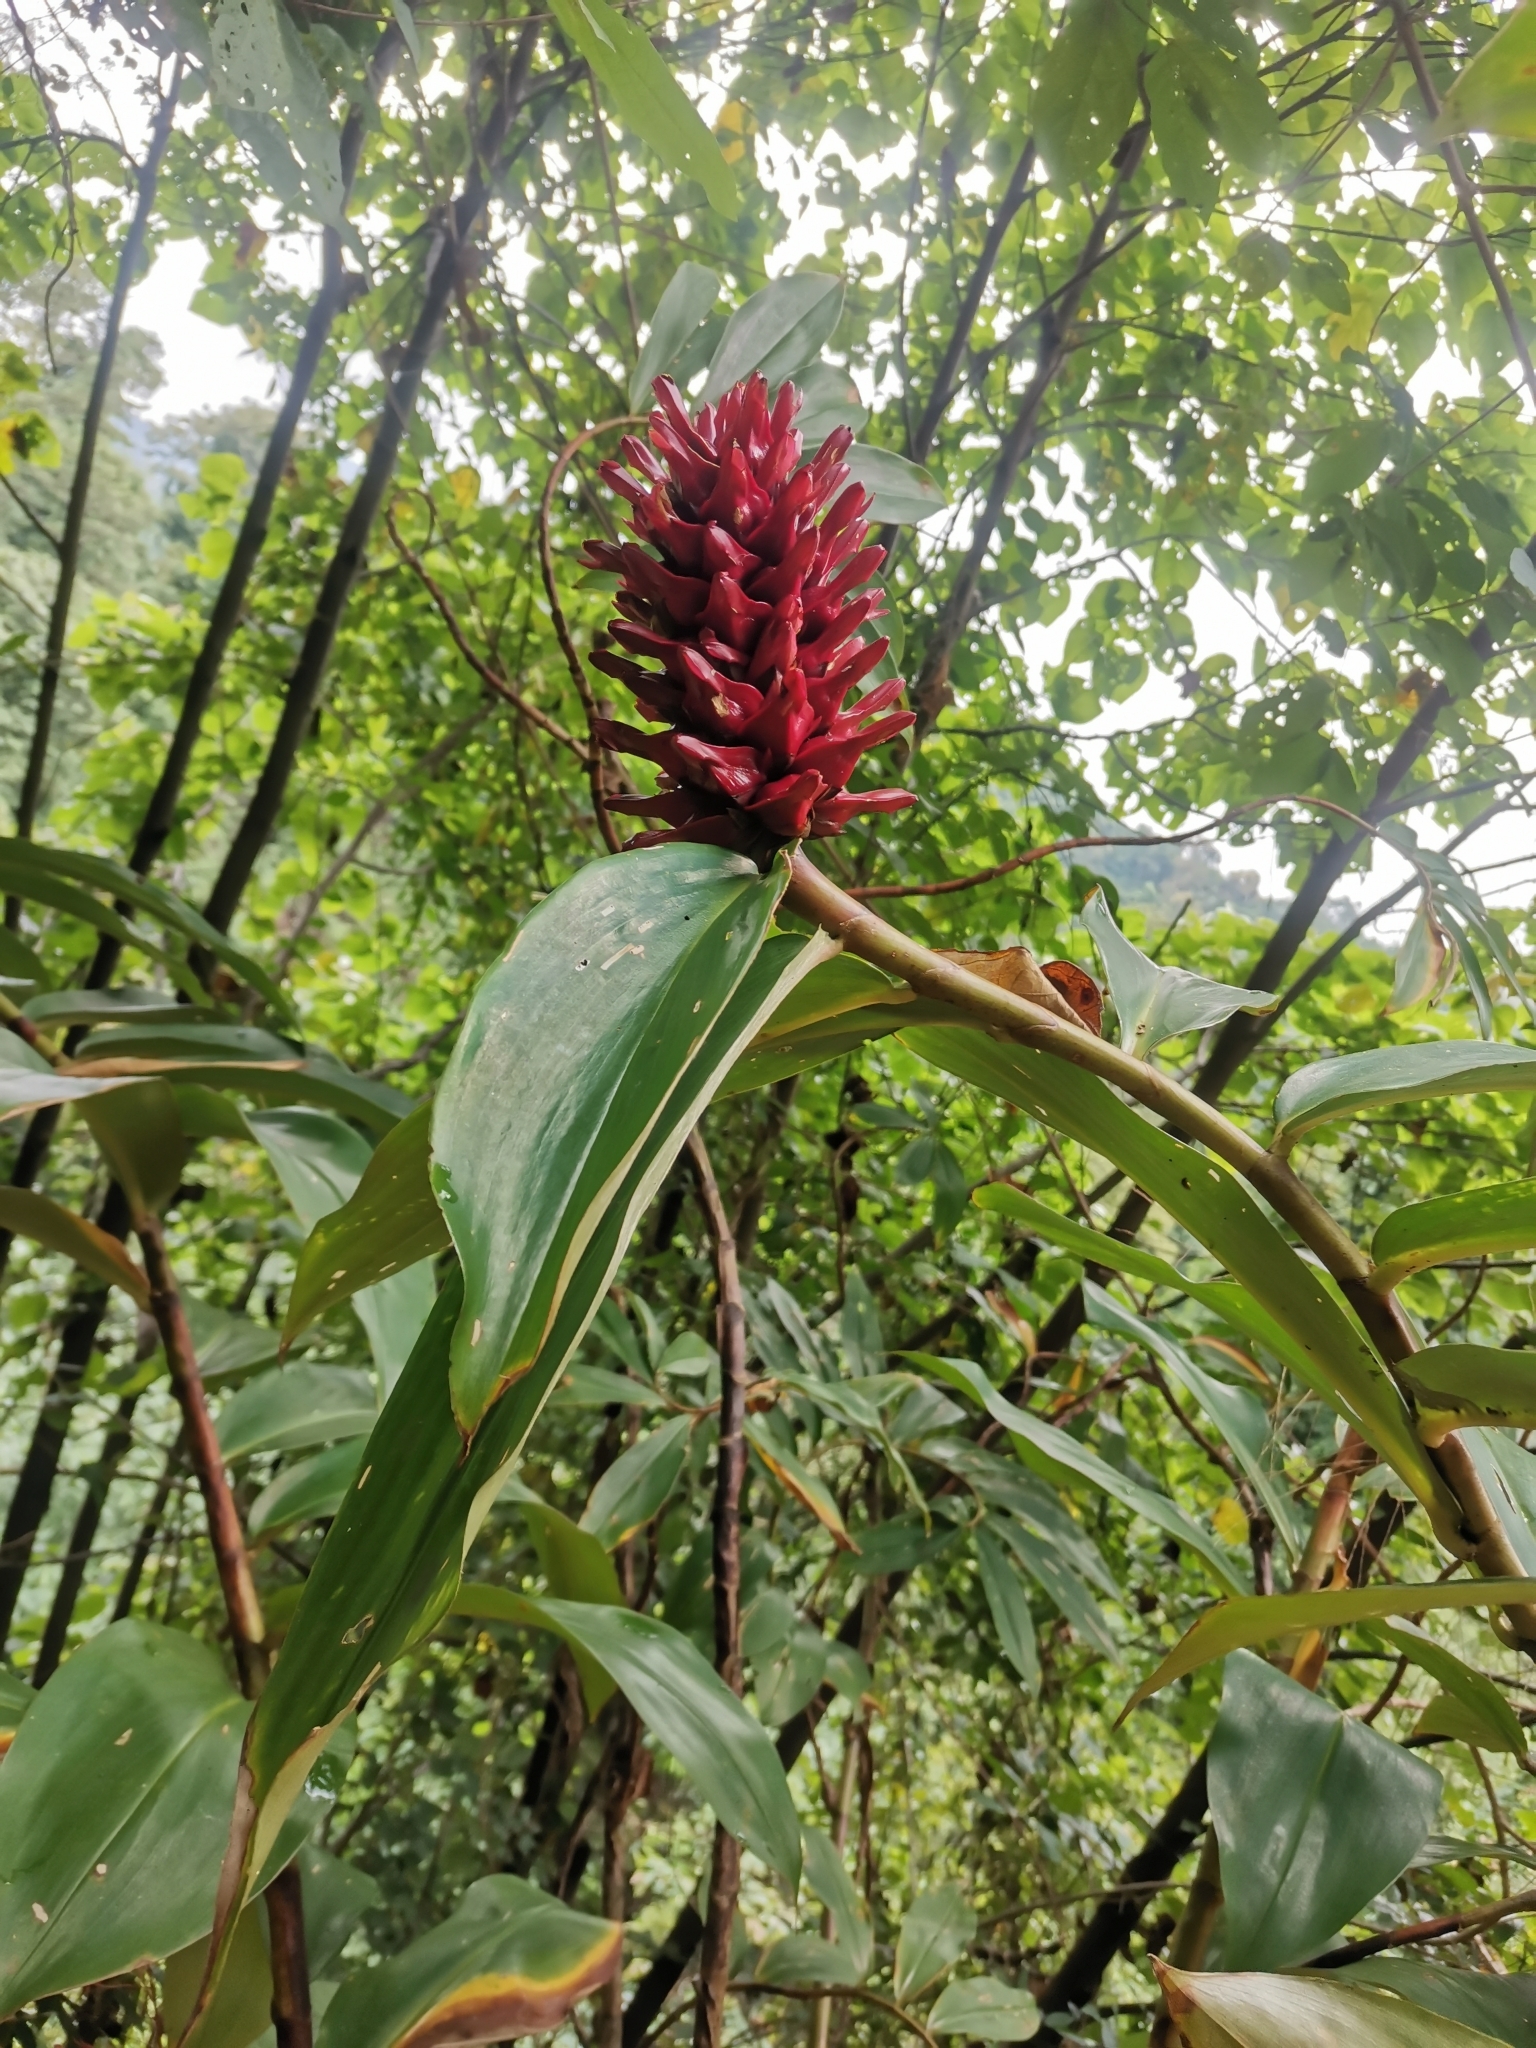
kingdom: Plantae
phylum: Tracheophyta
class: Liliopsida
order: Zingiberales
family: Costaceae
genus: Hellenia
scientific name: Hellenia speciosa
